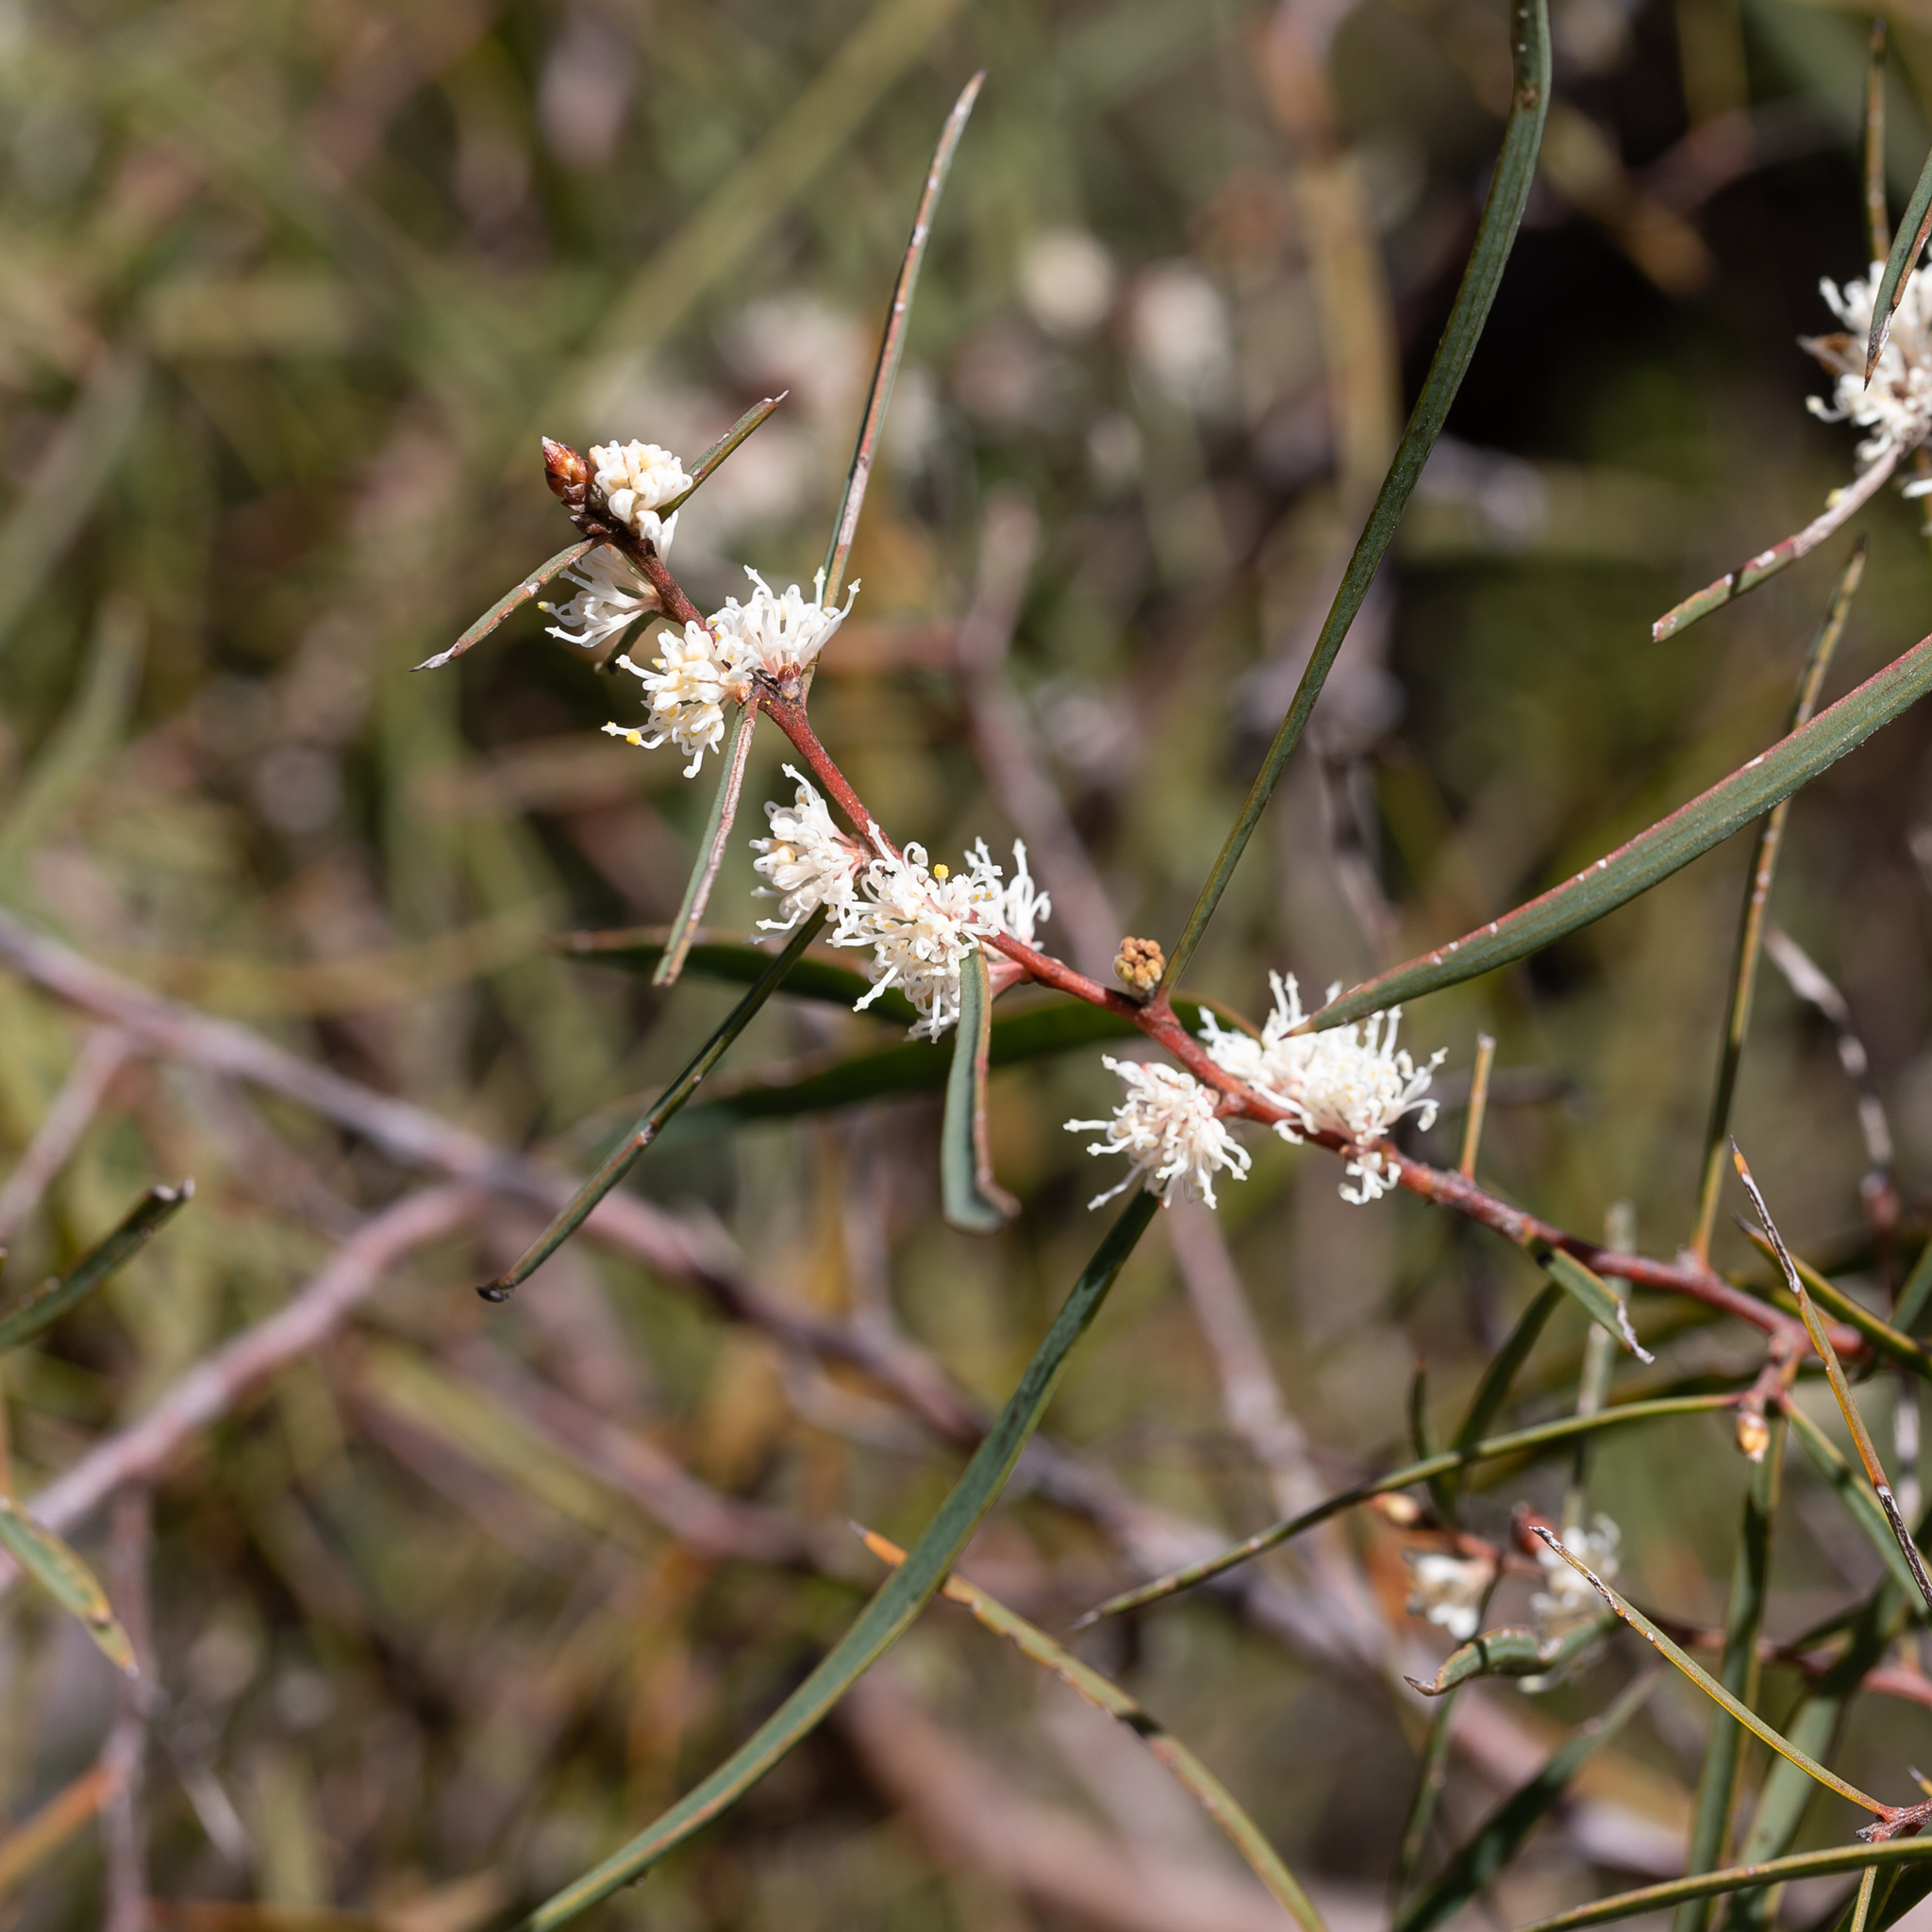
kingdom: Plantae
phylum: Tracheophyta
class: Magnoliopsida
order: Proteales
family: Proteaceae
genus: Hakea
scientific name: Hakea carinata
